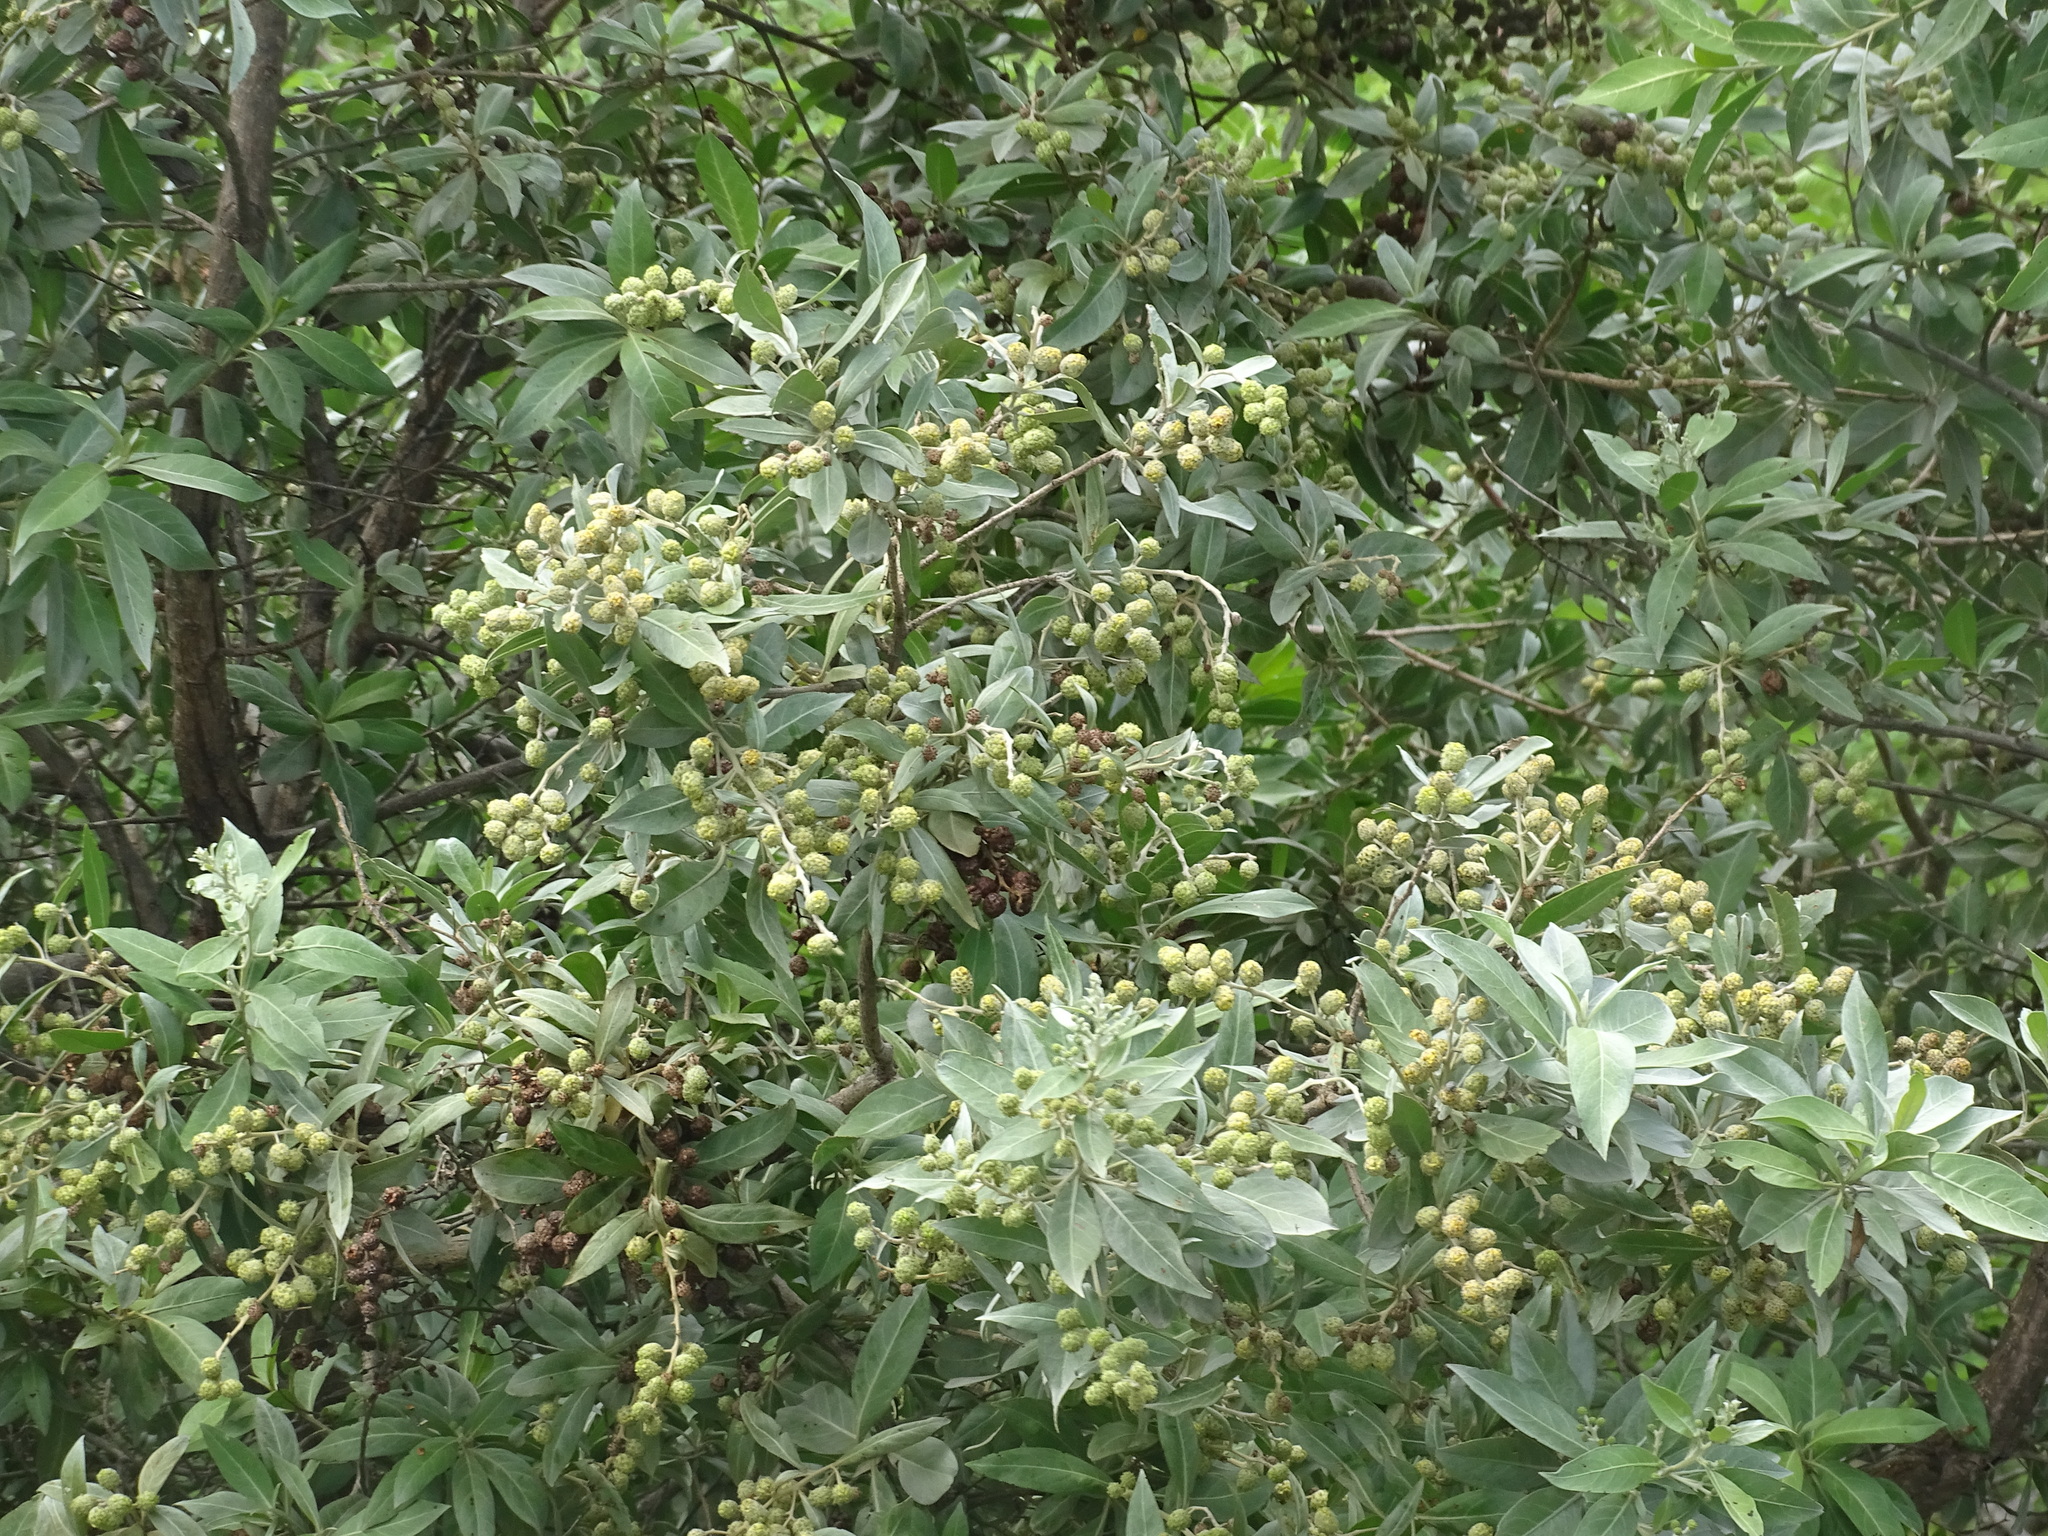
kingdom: Plantae
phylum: Tracheophyta
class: Magnoliopsida
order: Myrtales
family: Combretaceae
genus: Conocarpus
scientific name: Conocarpus erectus
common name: Button mangrove
